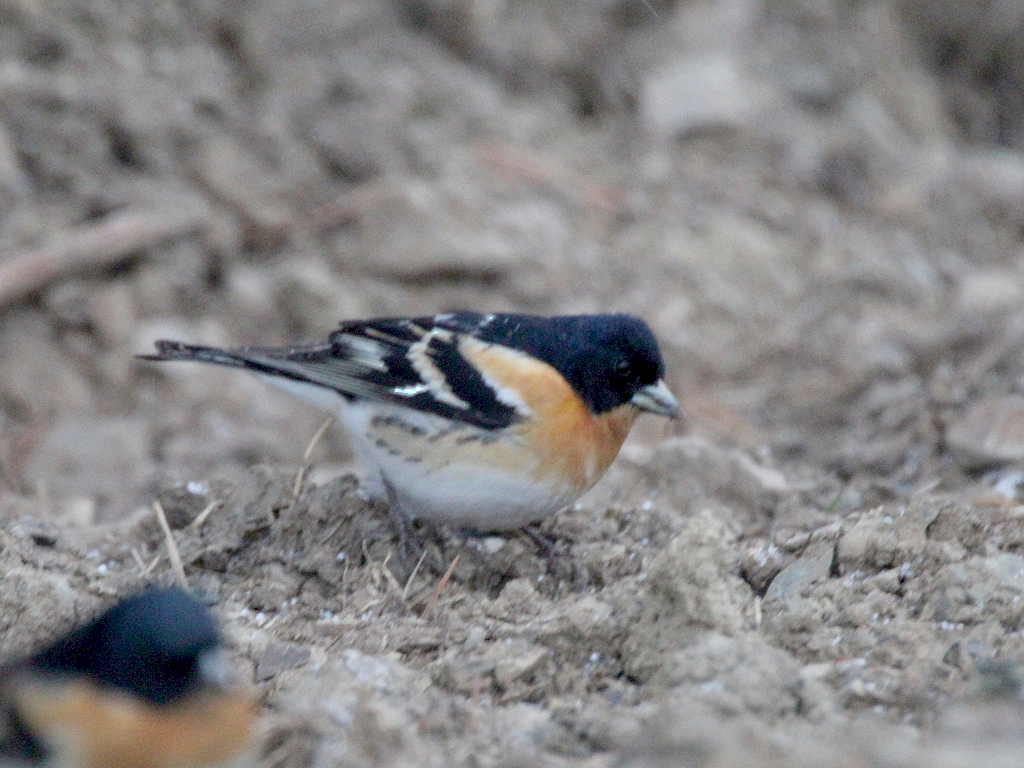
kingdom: Animalia
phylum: Chordata
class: Aves
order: Passeriformes
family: Fringillidae
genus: Fringilla
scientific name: Fringilla montifringilla
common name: Brambling
